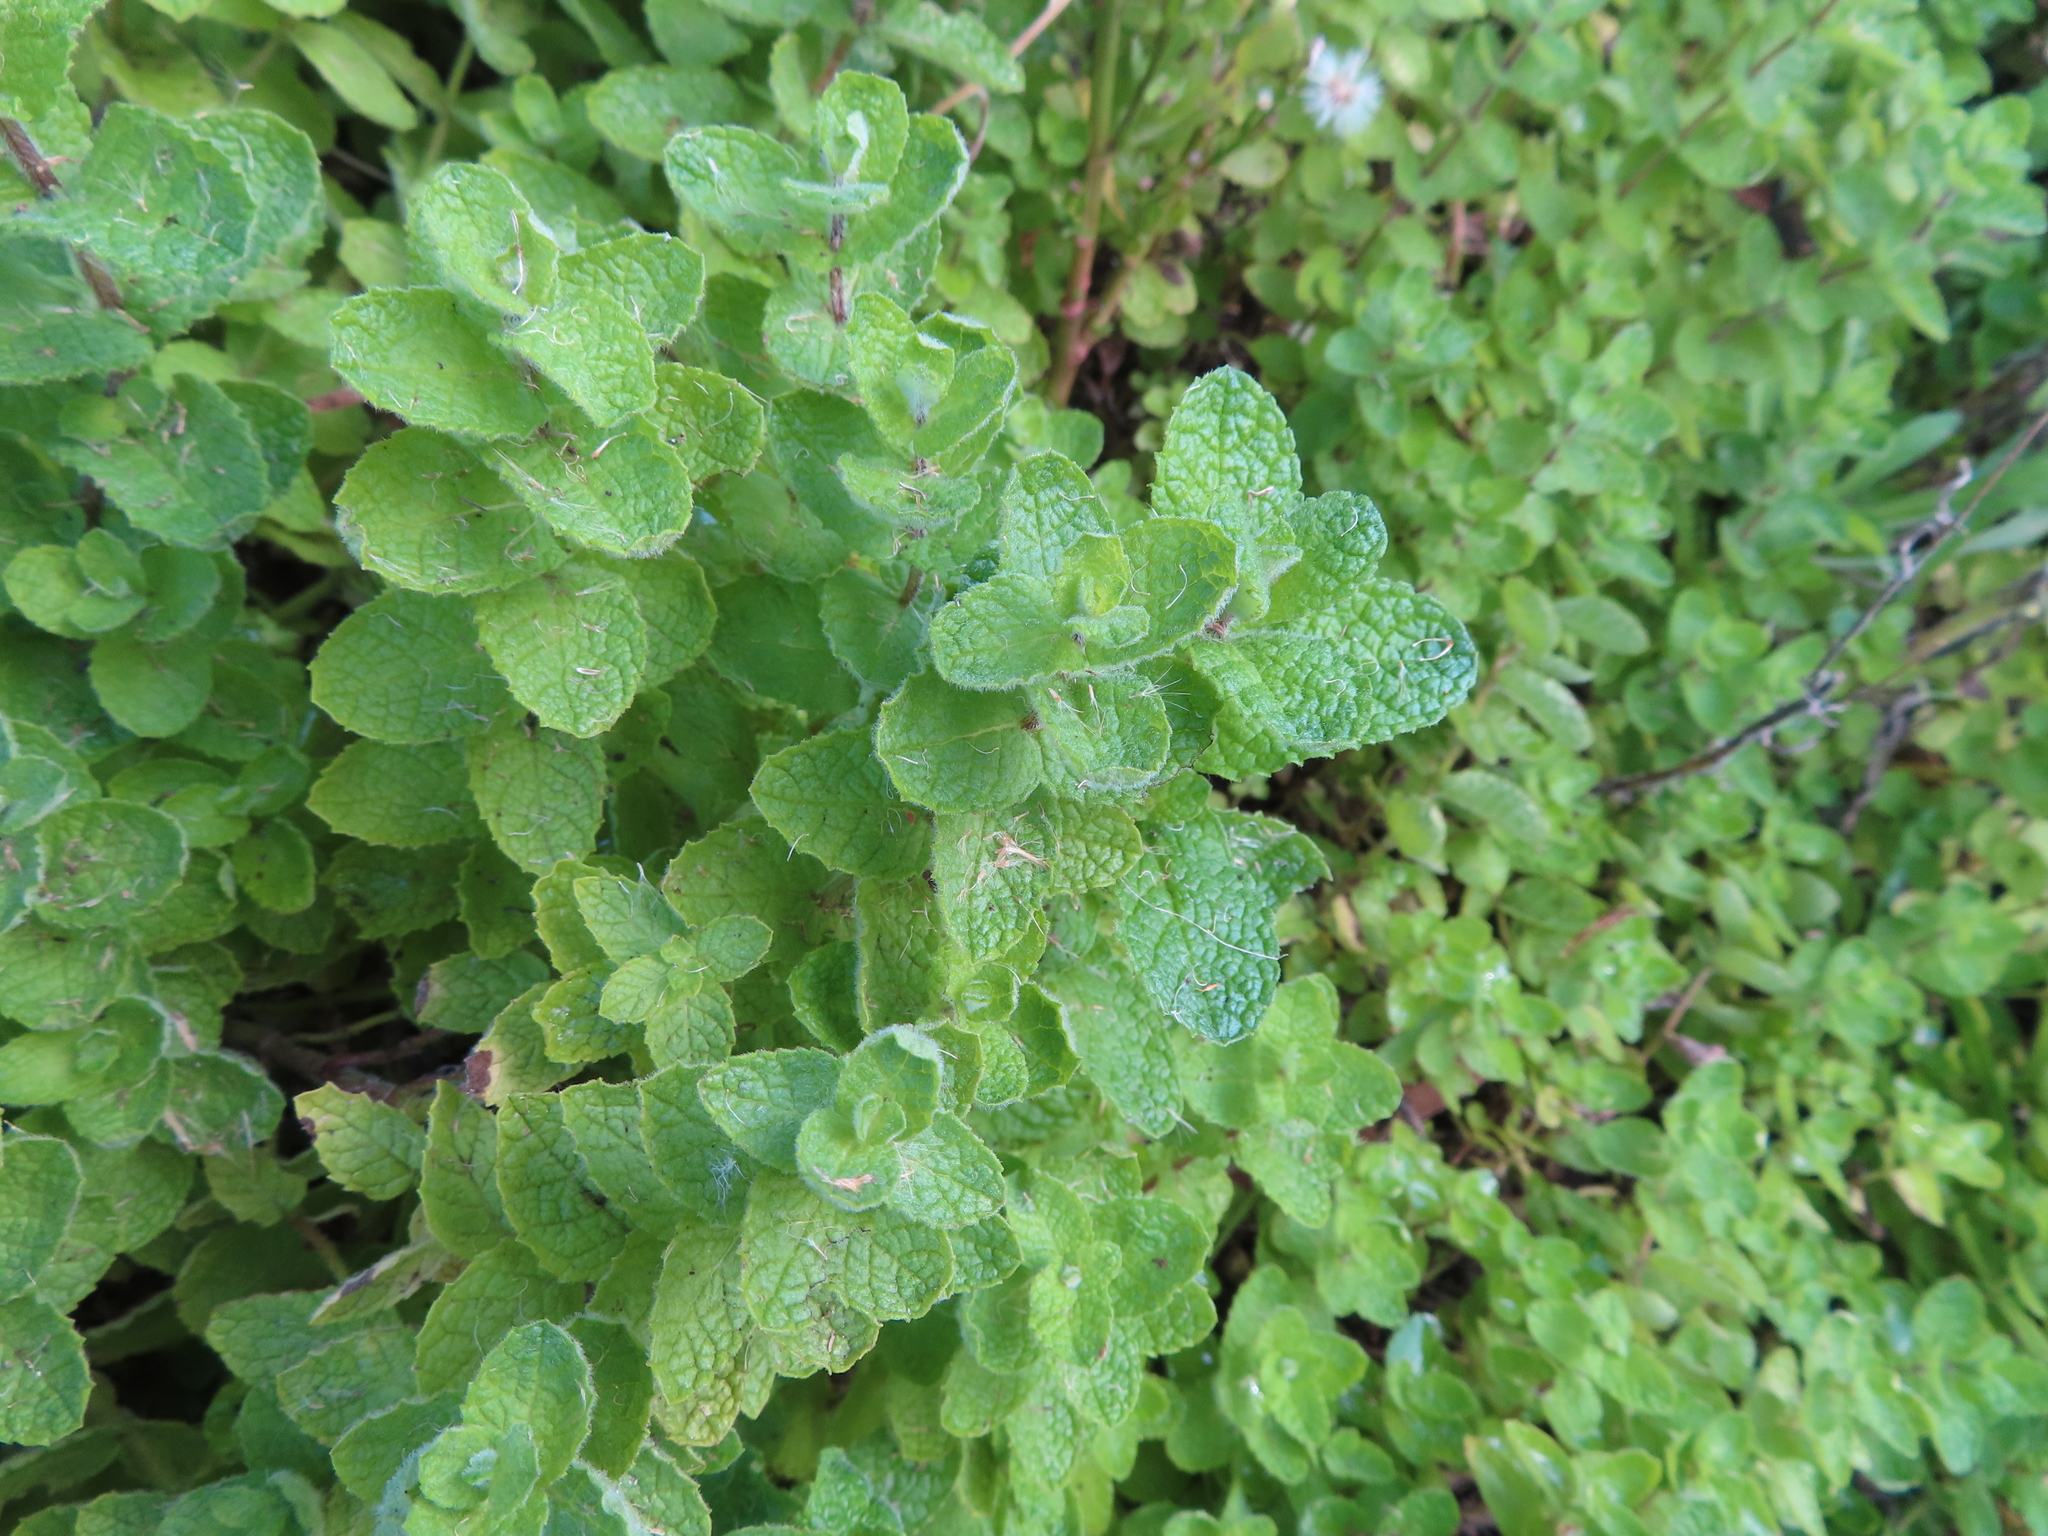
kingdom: Plantae
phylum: Tracheophyta
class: Magnoliopsida
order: Lamiales
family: Lamiaceae
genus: Mentha
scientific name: Mentha spicata
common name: Spearmint
